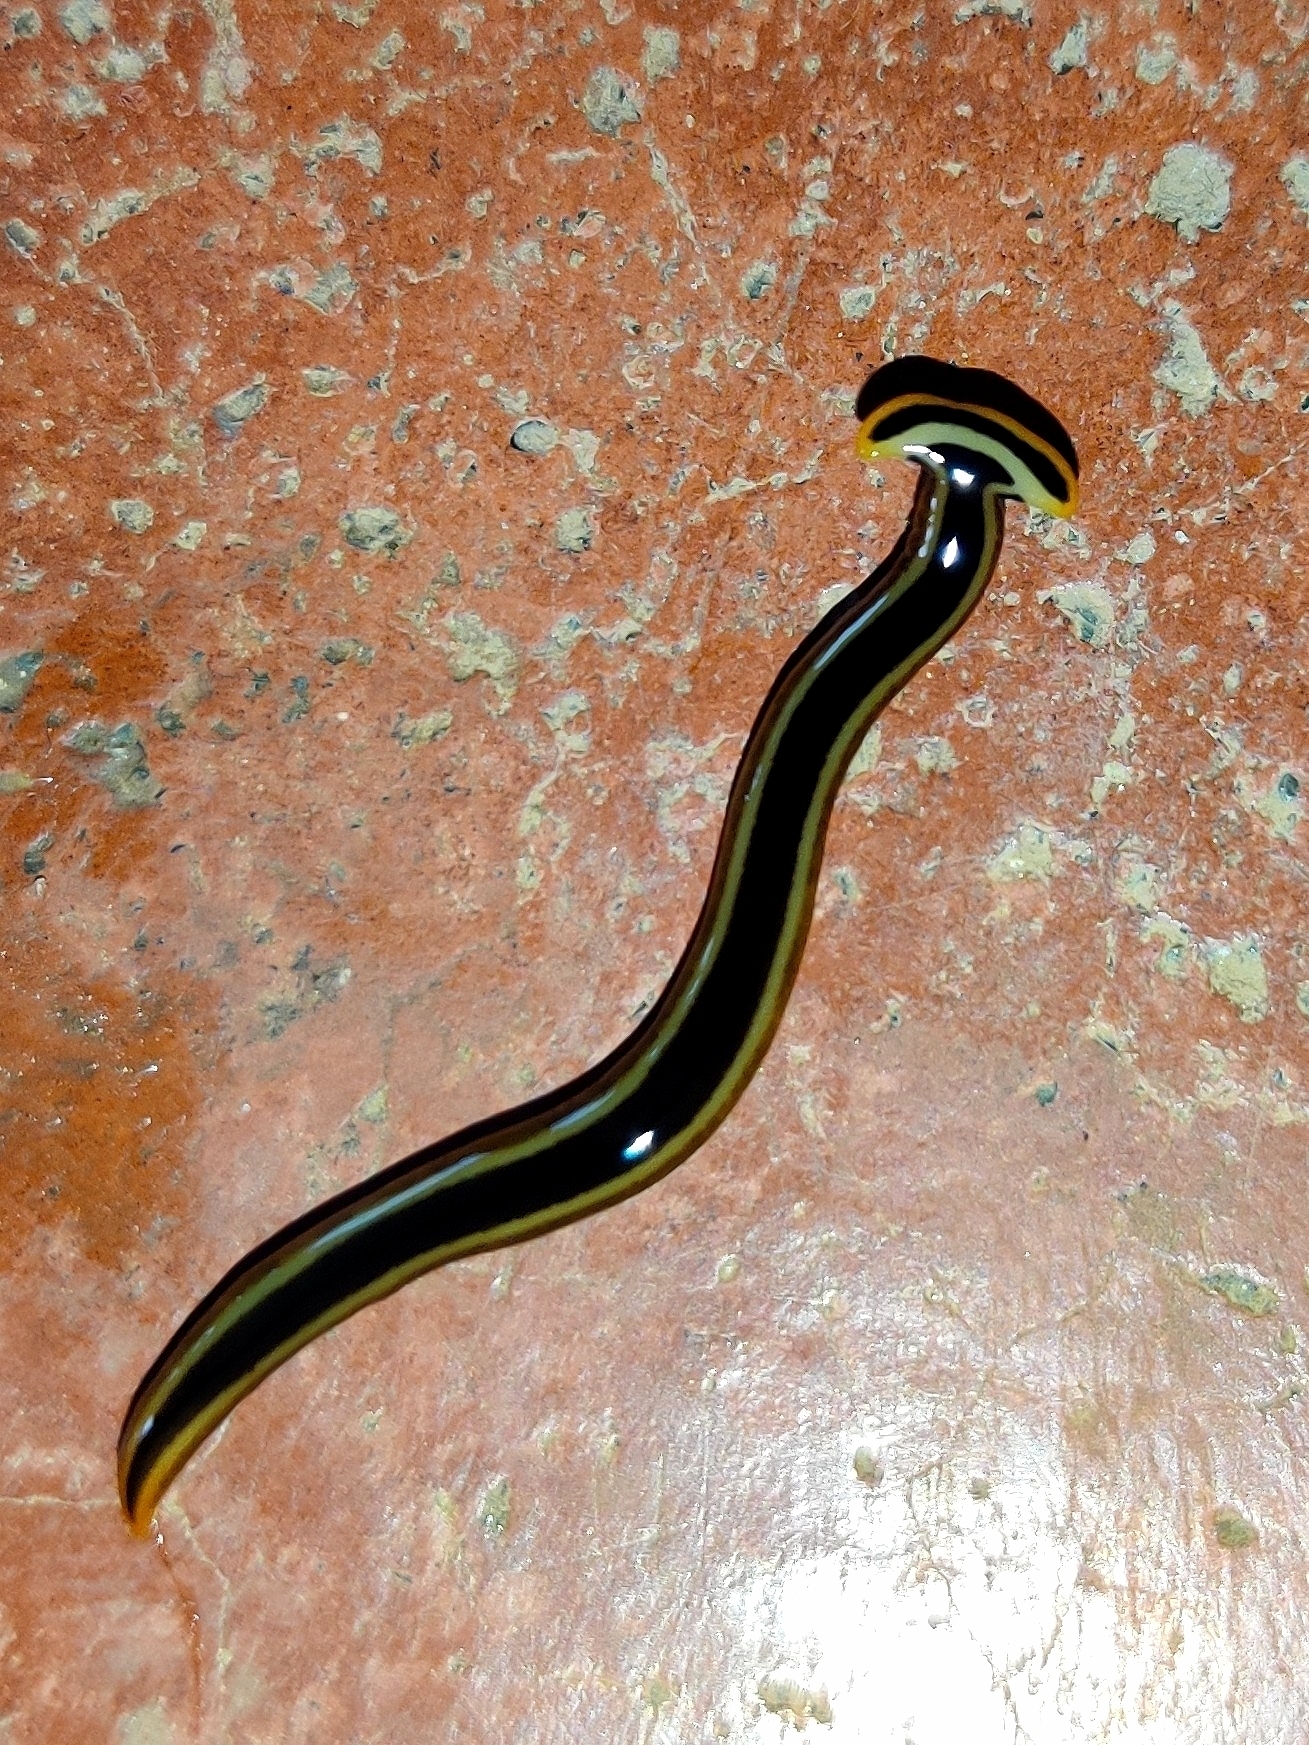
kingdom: Animalia
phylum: Platyhelminthes
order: Tricladida
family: Geoplanidae
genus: Diversibipalium
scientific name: Diversibipalium andrewsi
